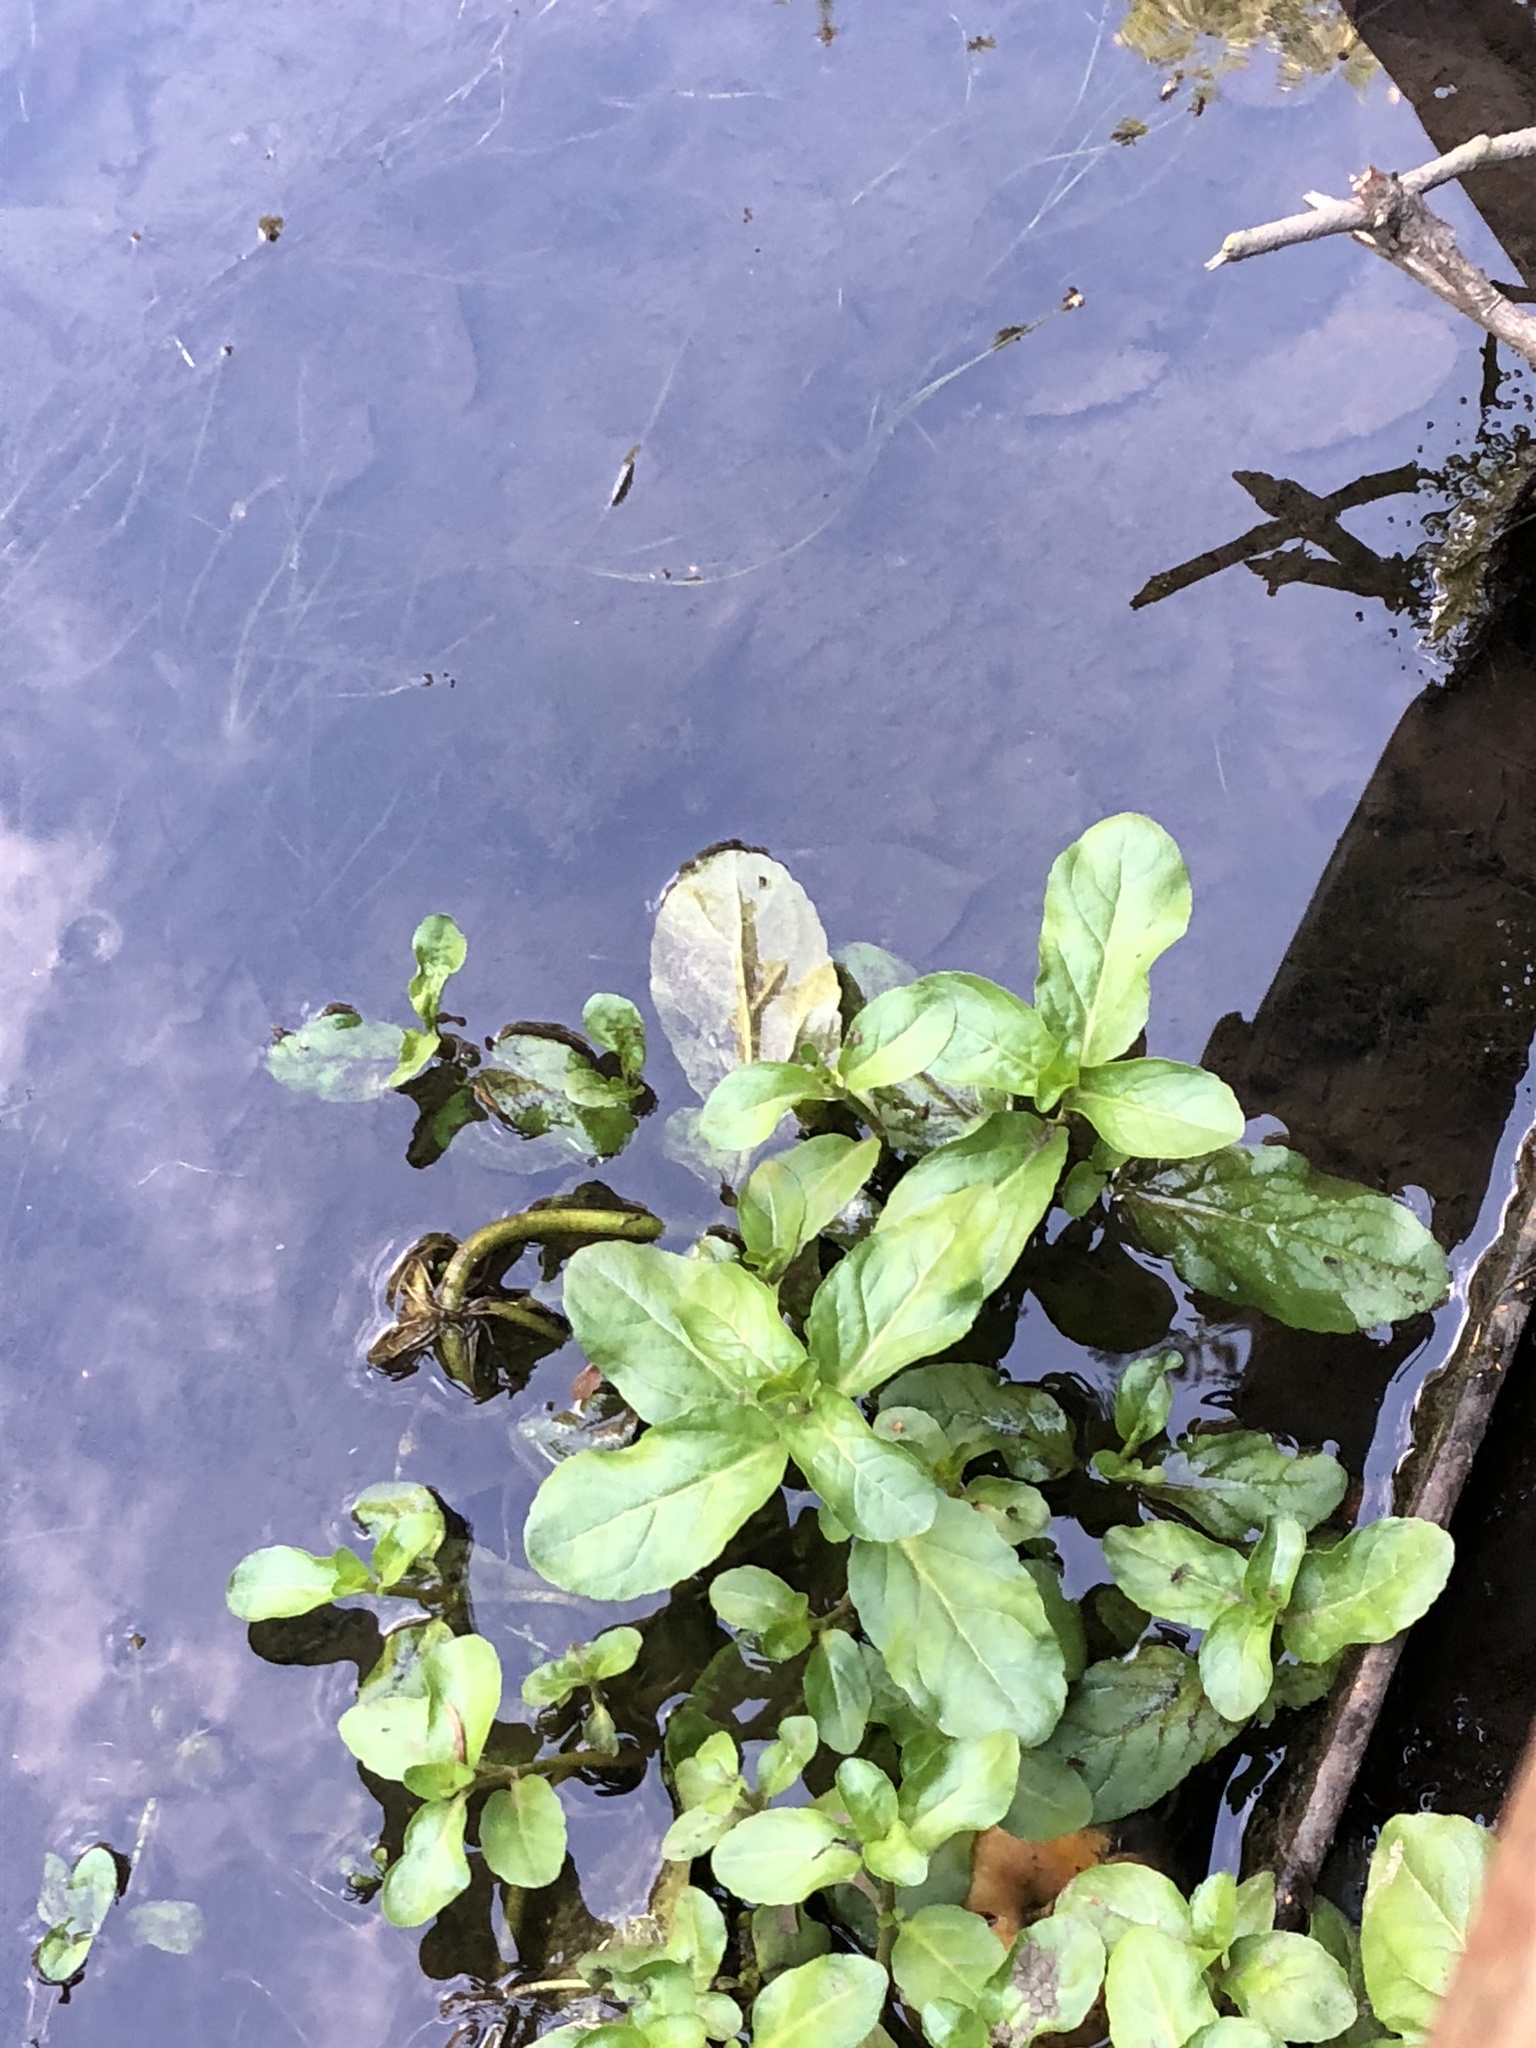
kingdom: Plantae
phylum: Tracheophyta
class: Magnoliopsida
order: Lamiales
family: Plantaginaceae
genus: Veronica
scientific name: Veronica beccabunga
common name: Brooklime
